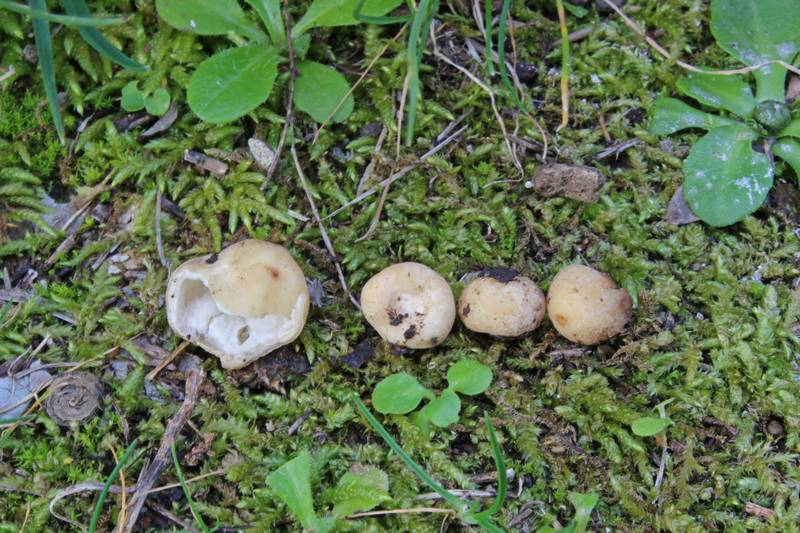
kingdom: Fungi
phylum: Ascomycota
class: Pezizomycetes
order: Pezizales
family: Pyronemataceae
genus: Hydnocystis
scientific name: Hydnocystis piligera
